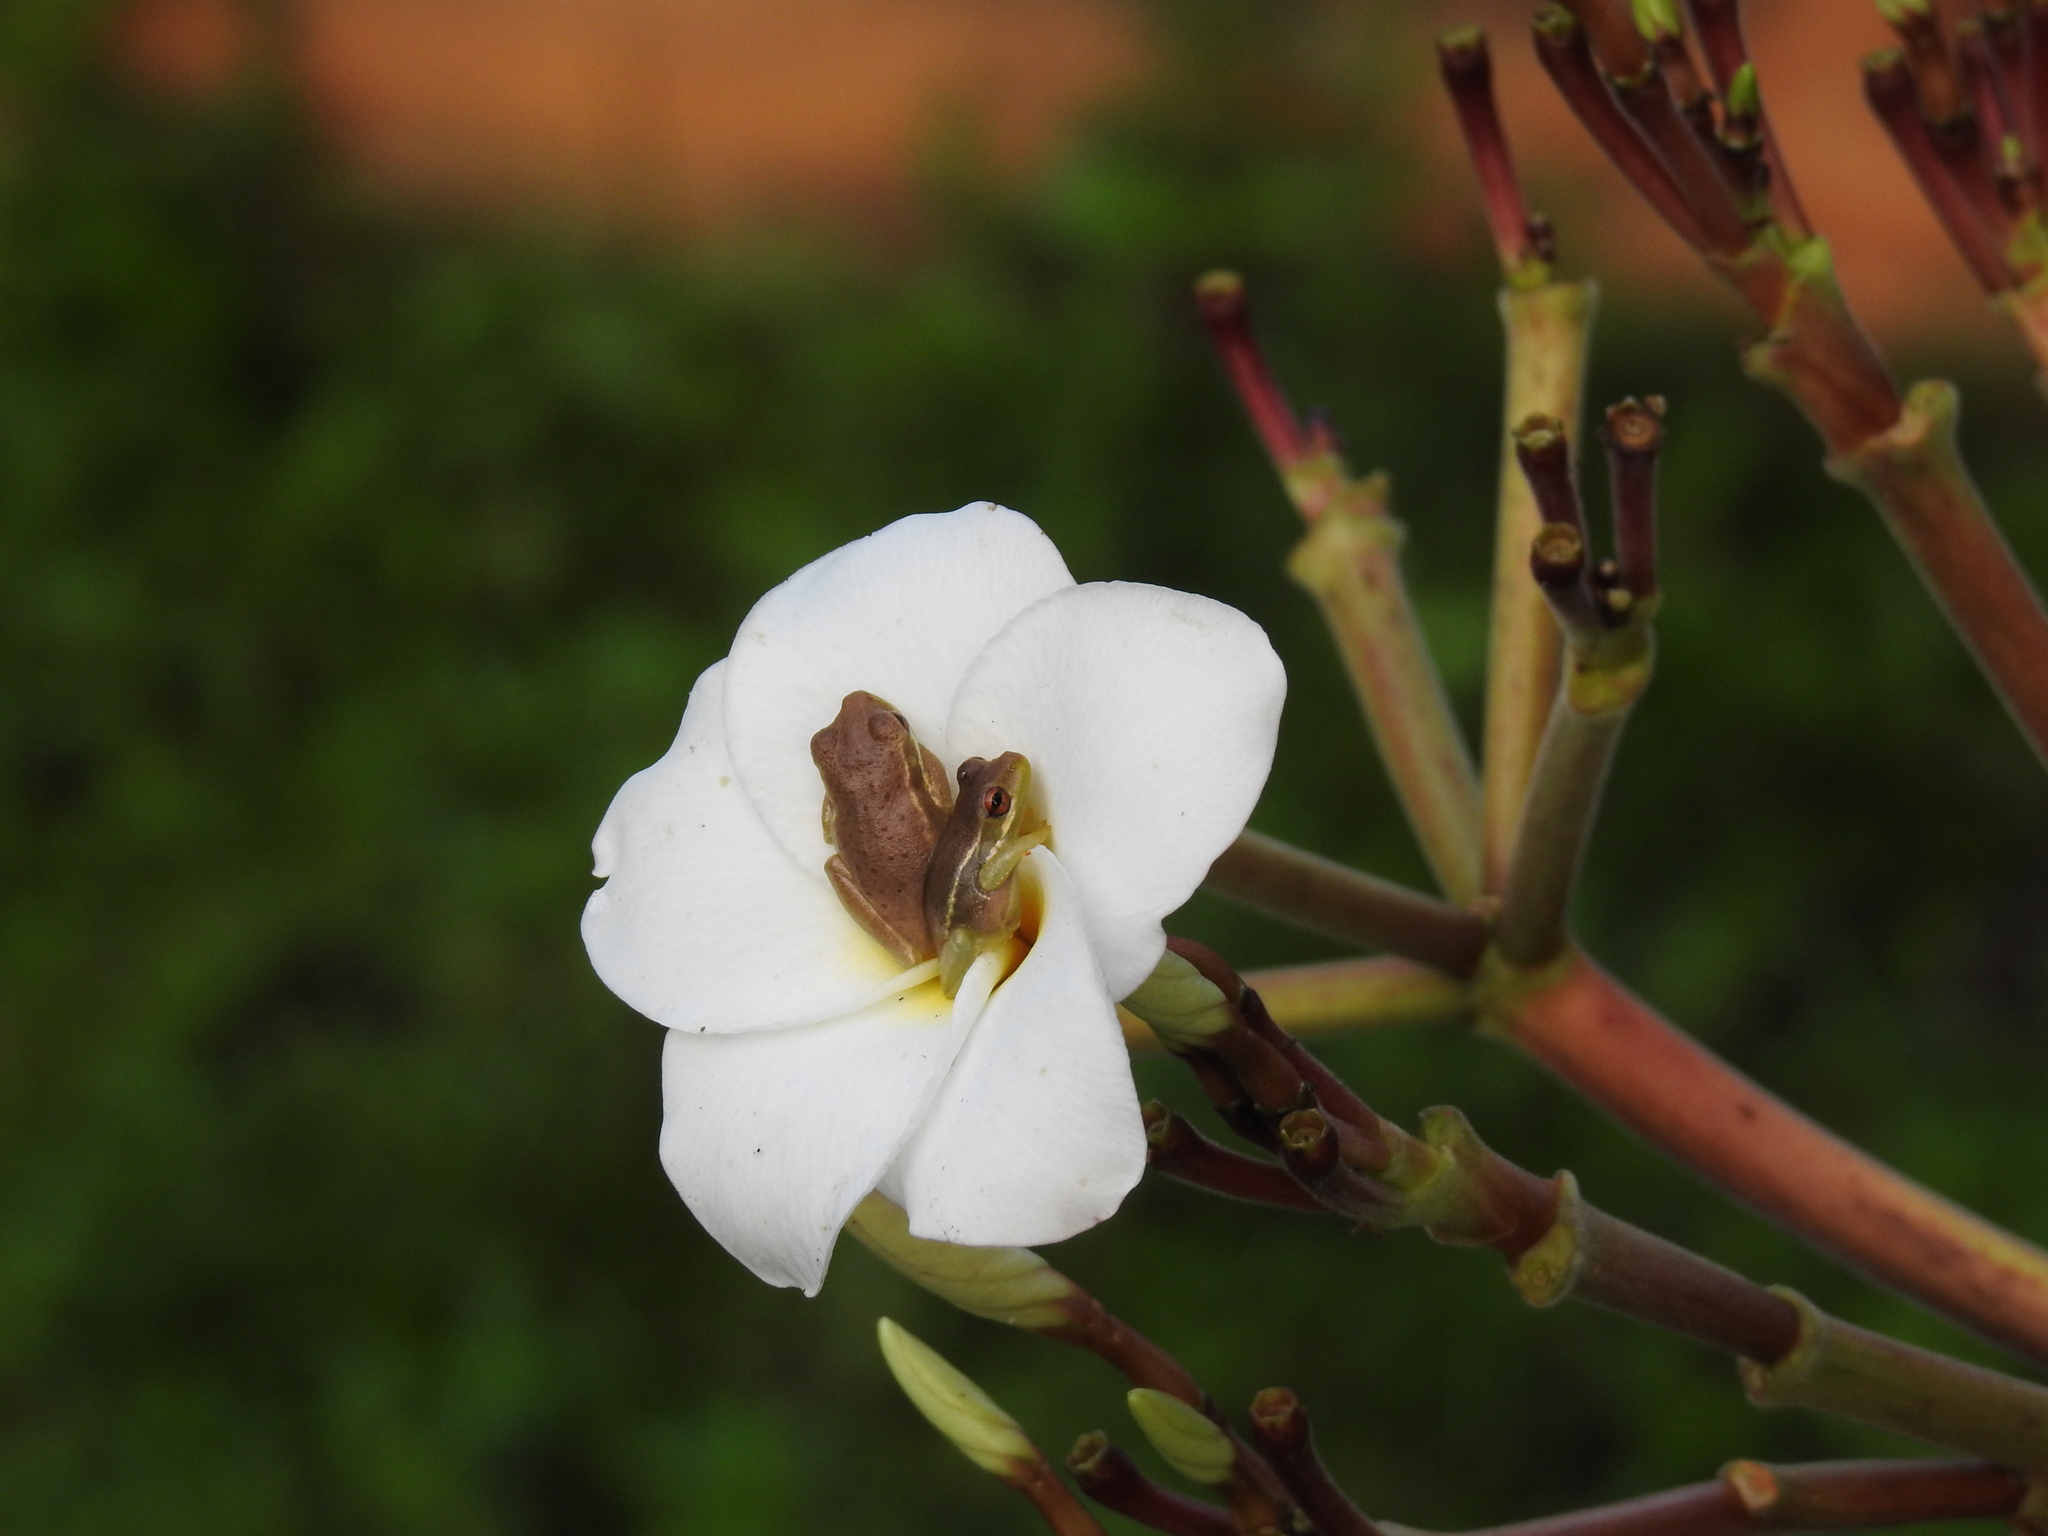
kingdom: Animalia
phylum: Chordata
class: Amphibia
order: Anura
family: Hylidae
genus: Osteopilus
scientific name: Osteopilus septentrionalis
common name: Cuban treefrog
